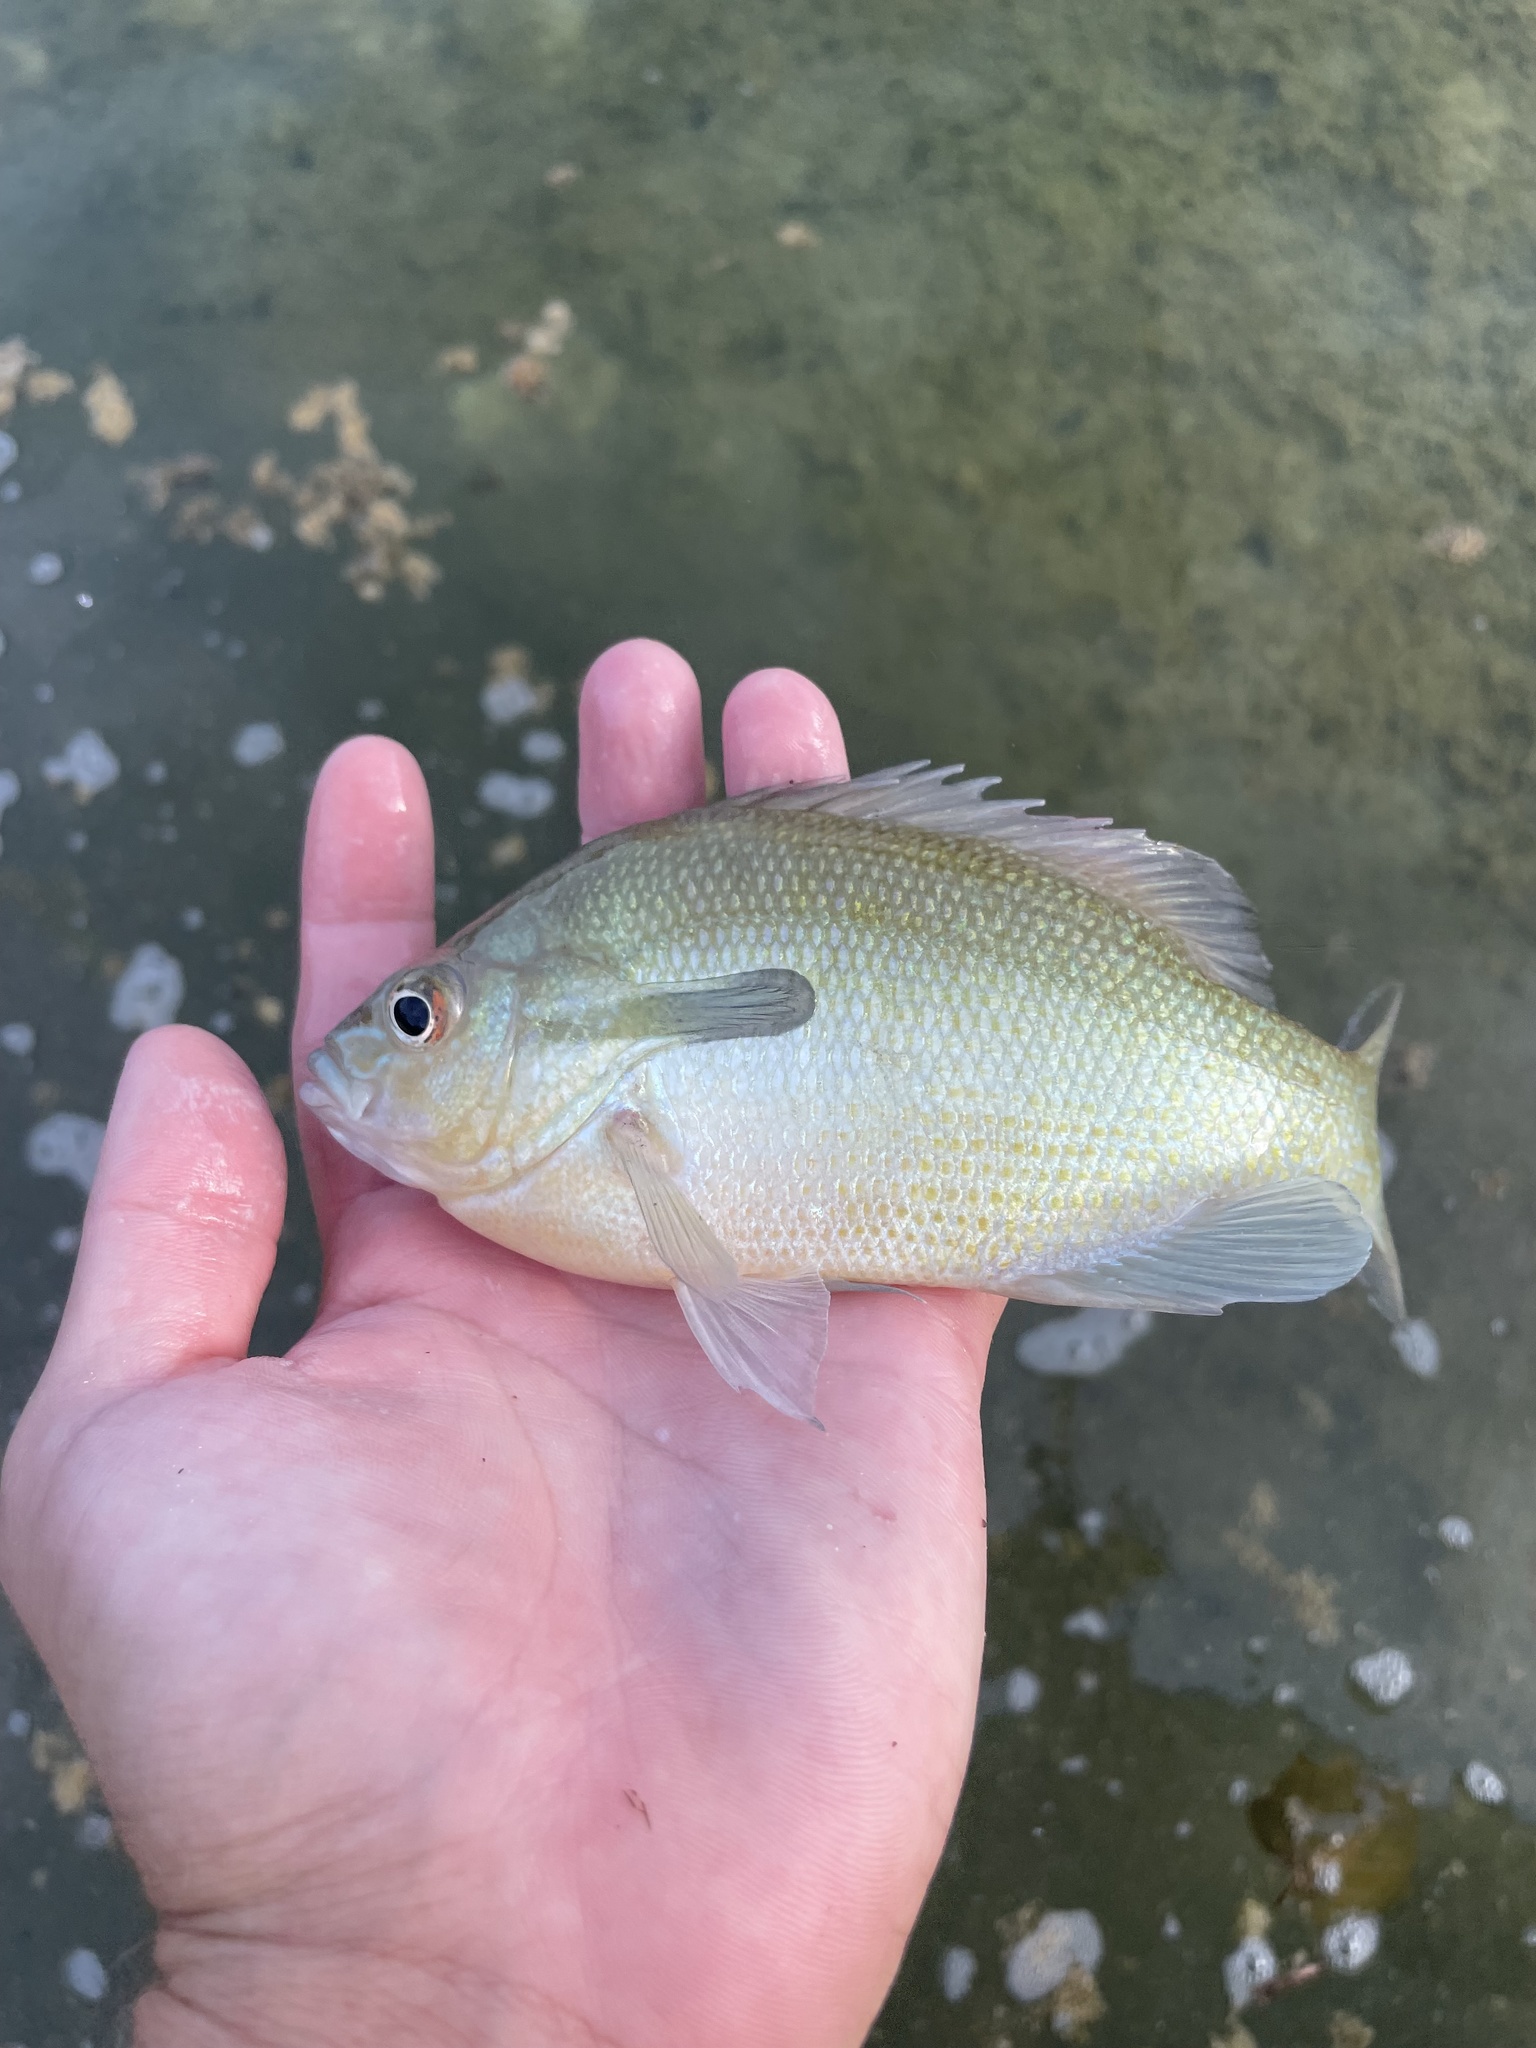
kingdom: Animalia
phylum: Chordata
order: Perciformes
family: Centrarchidae
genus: Lepomis
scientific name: Lepomis auritus
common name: Redbreast sunfish
